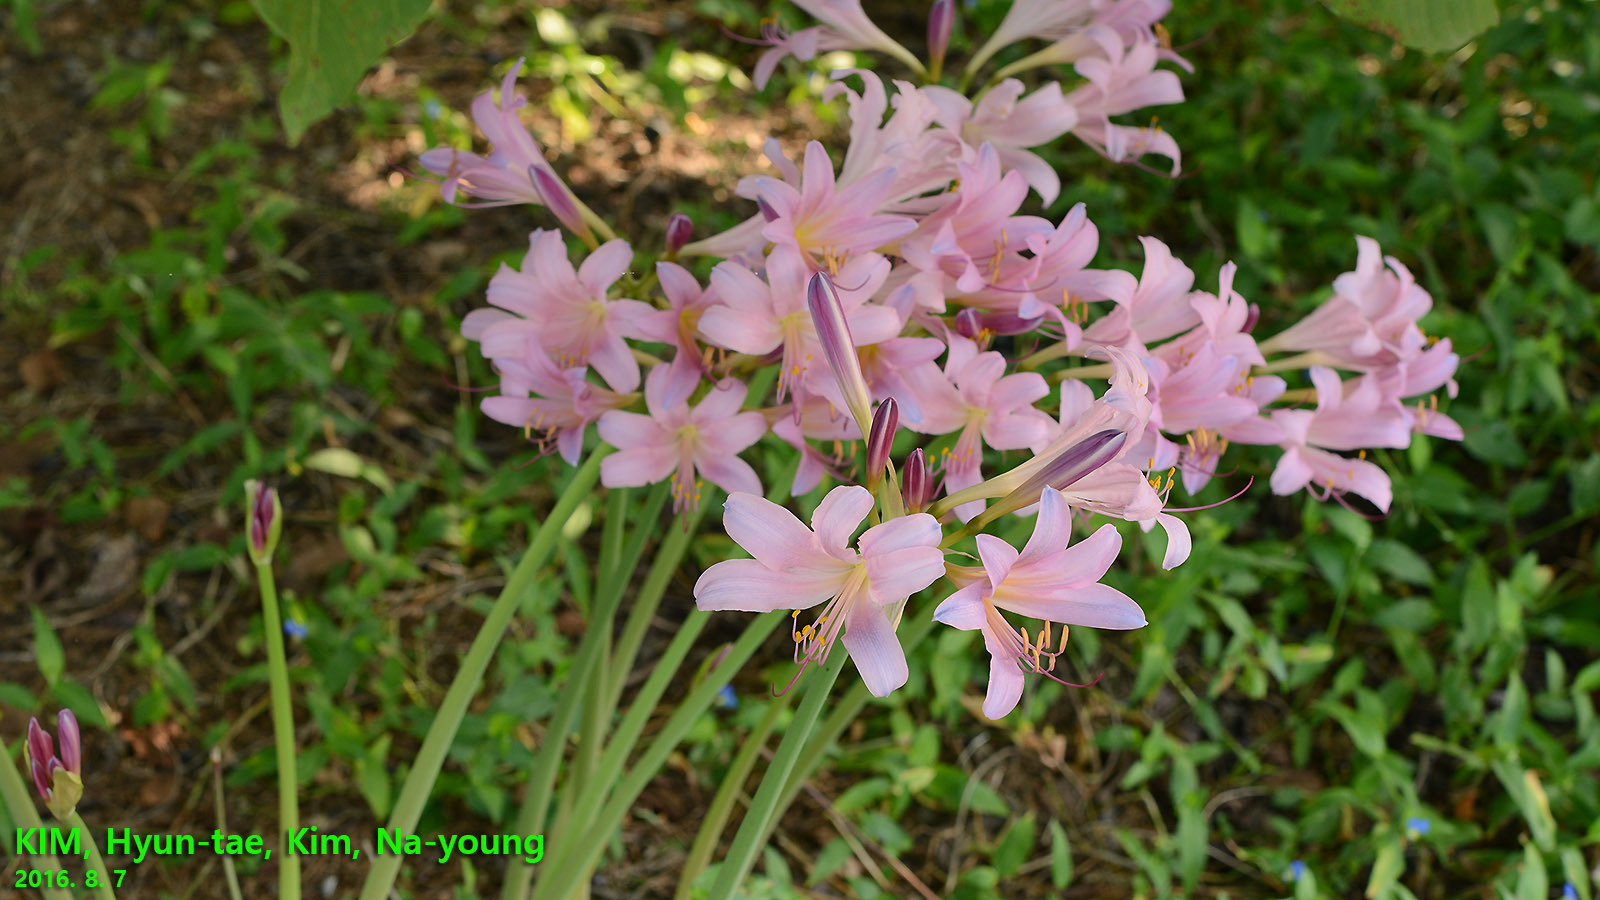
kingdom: Plantae
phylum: Tracheophyta
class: Liliopsida
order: Asparagales
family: Amaryllidaceae
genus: Lycoris
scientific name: Lycoris squamigera
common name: Magic-lily
